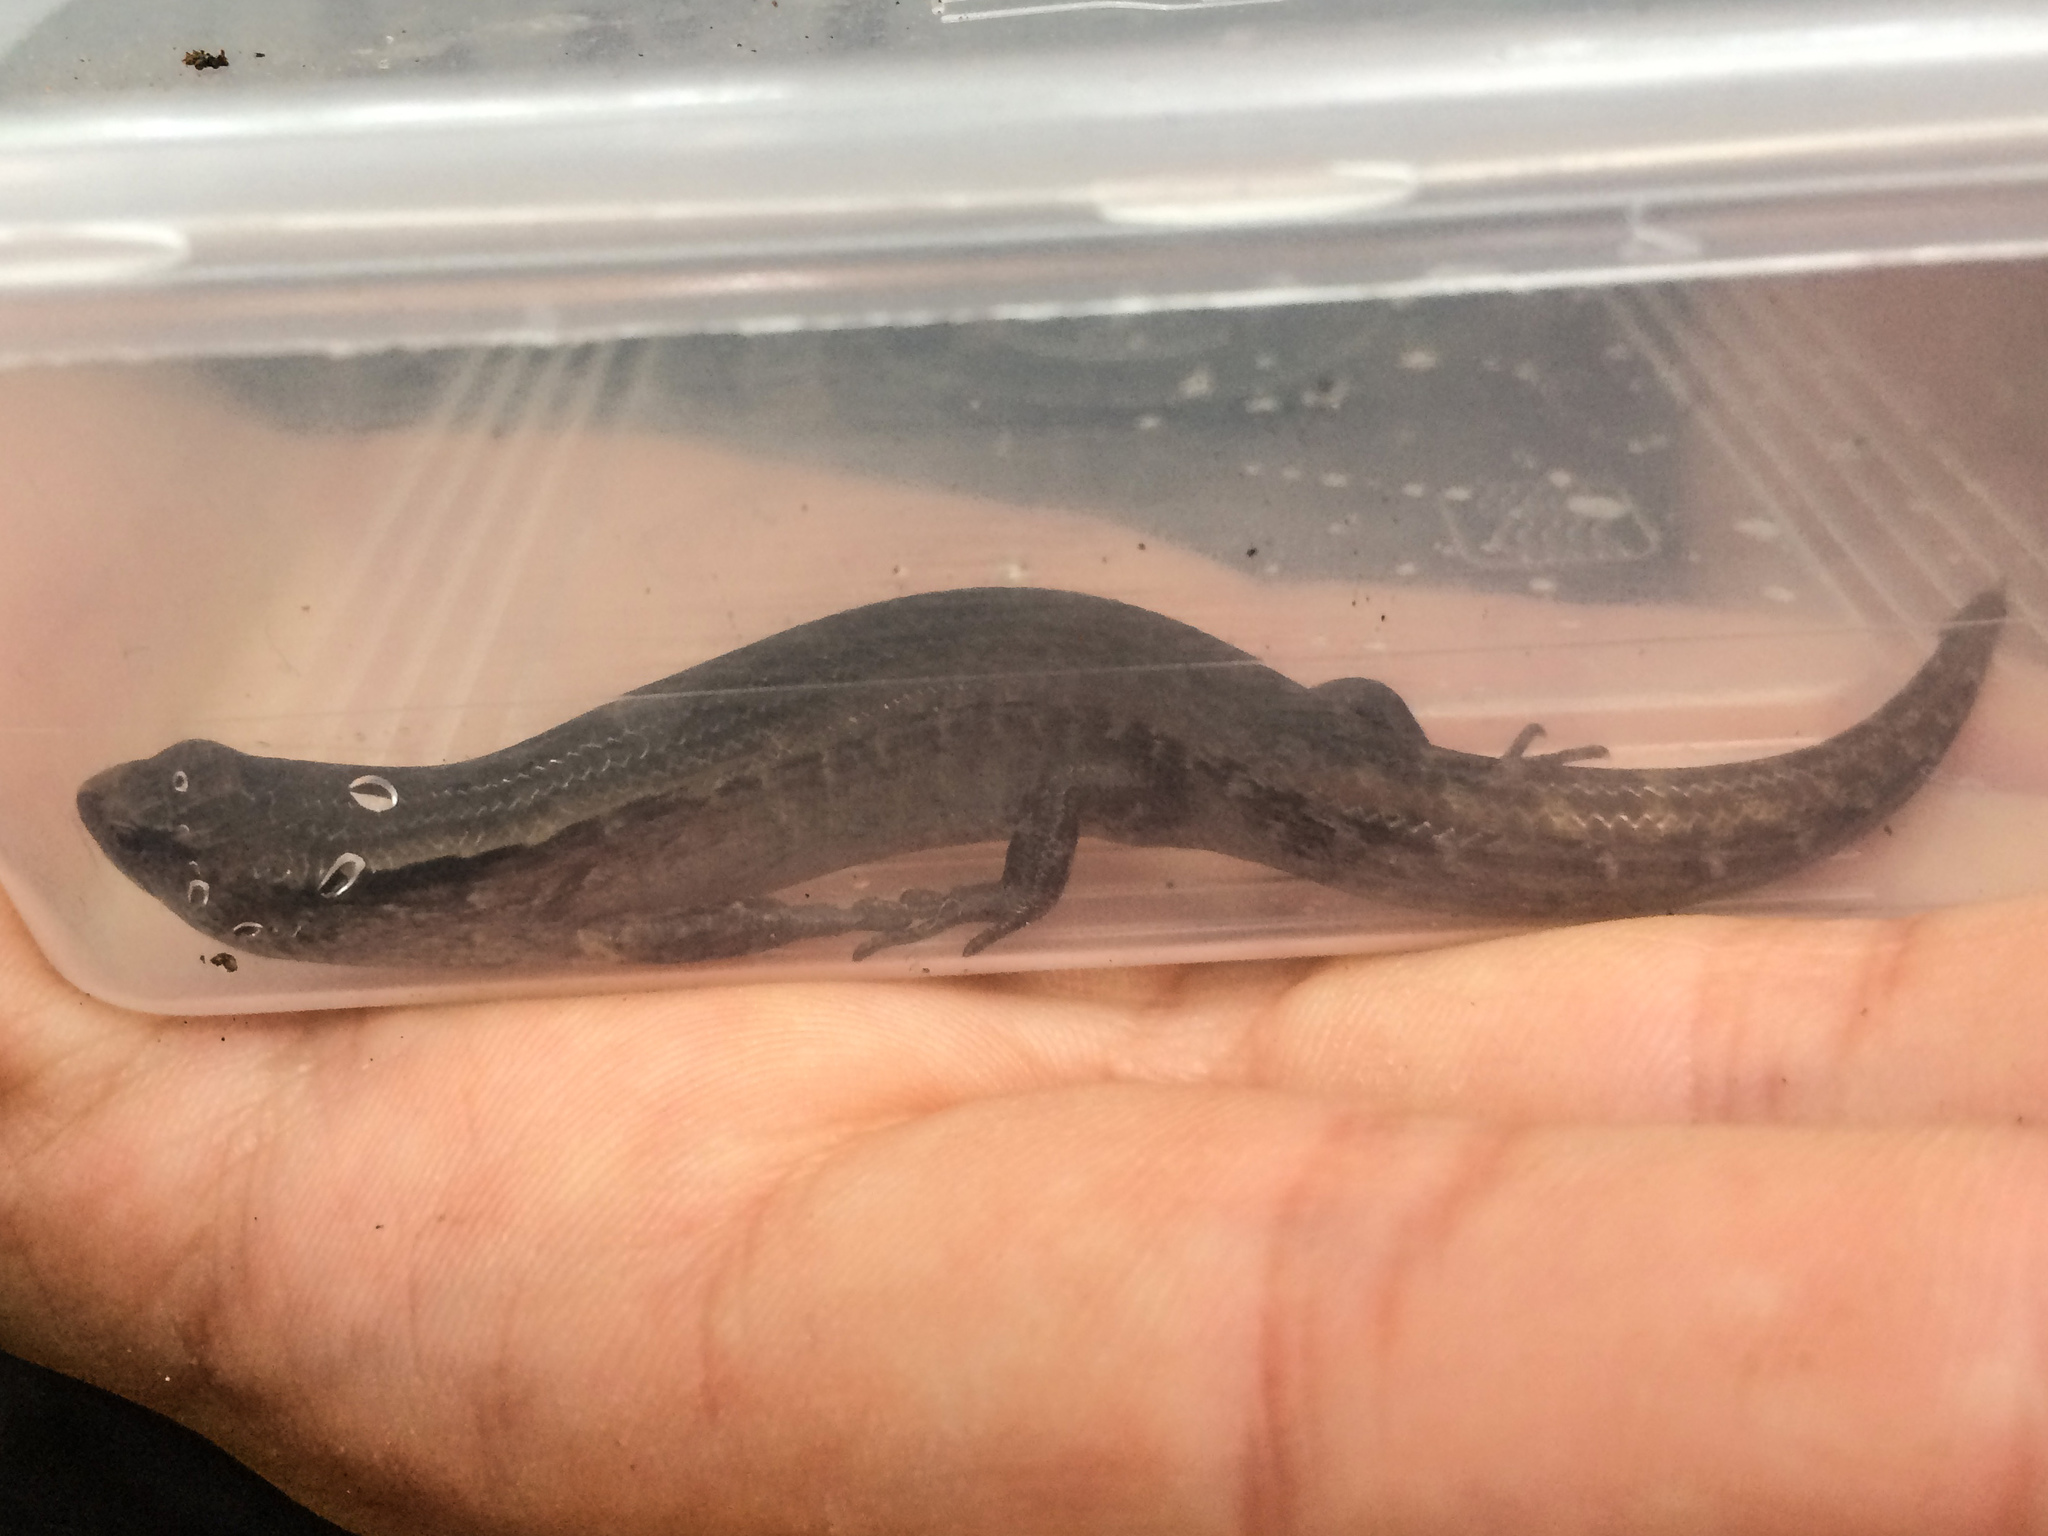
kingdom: Animalia
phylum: Chordata
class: Squamata
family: Scincidae
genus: Oligosoma
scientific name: Oligosoma ornatum
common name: Gray's ornate skink
